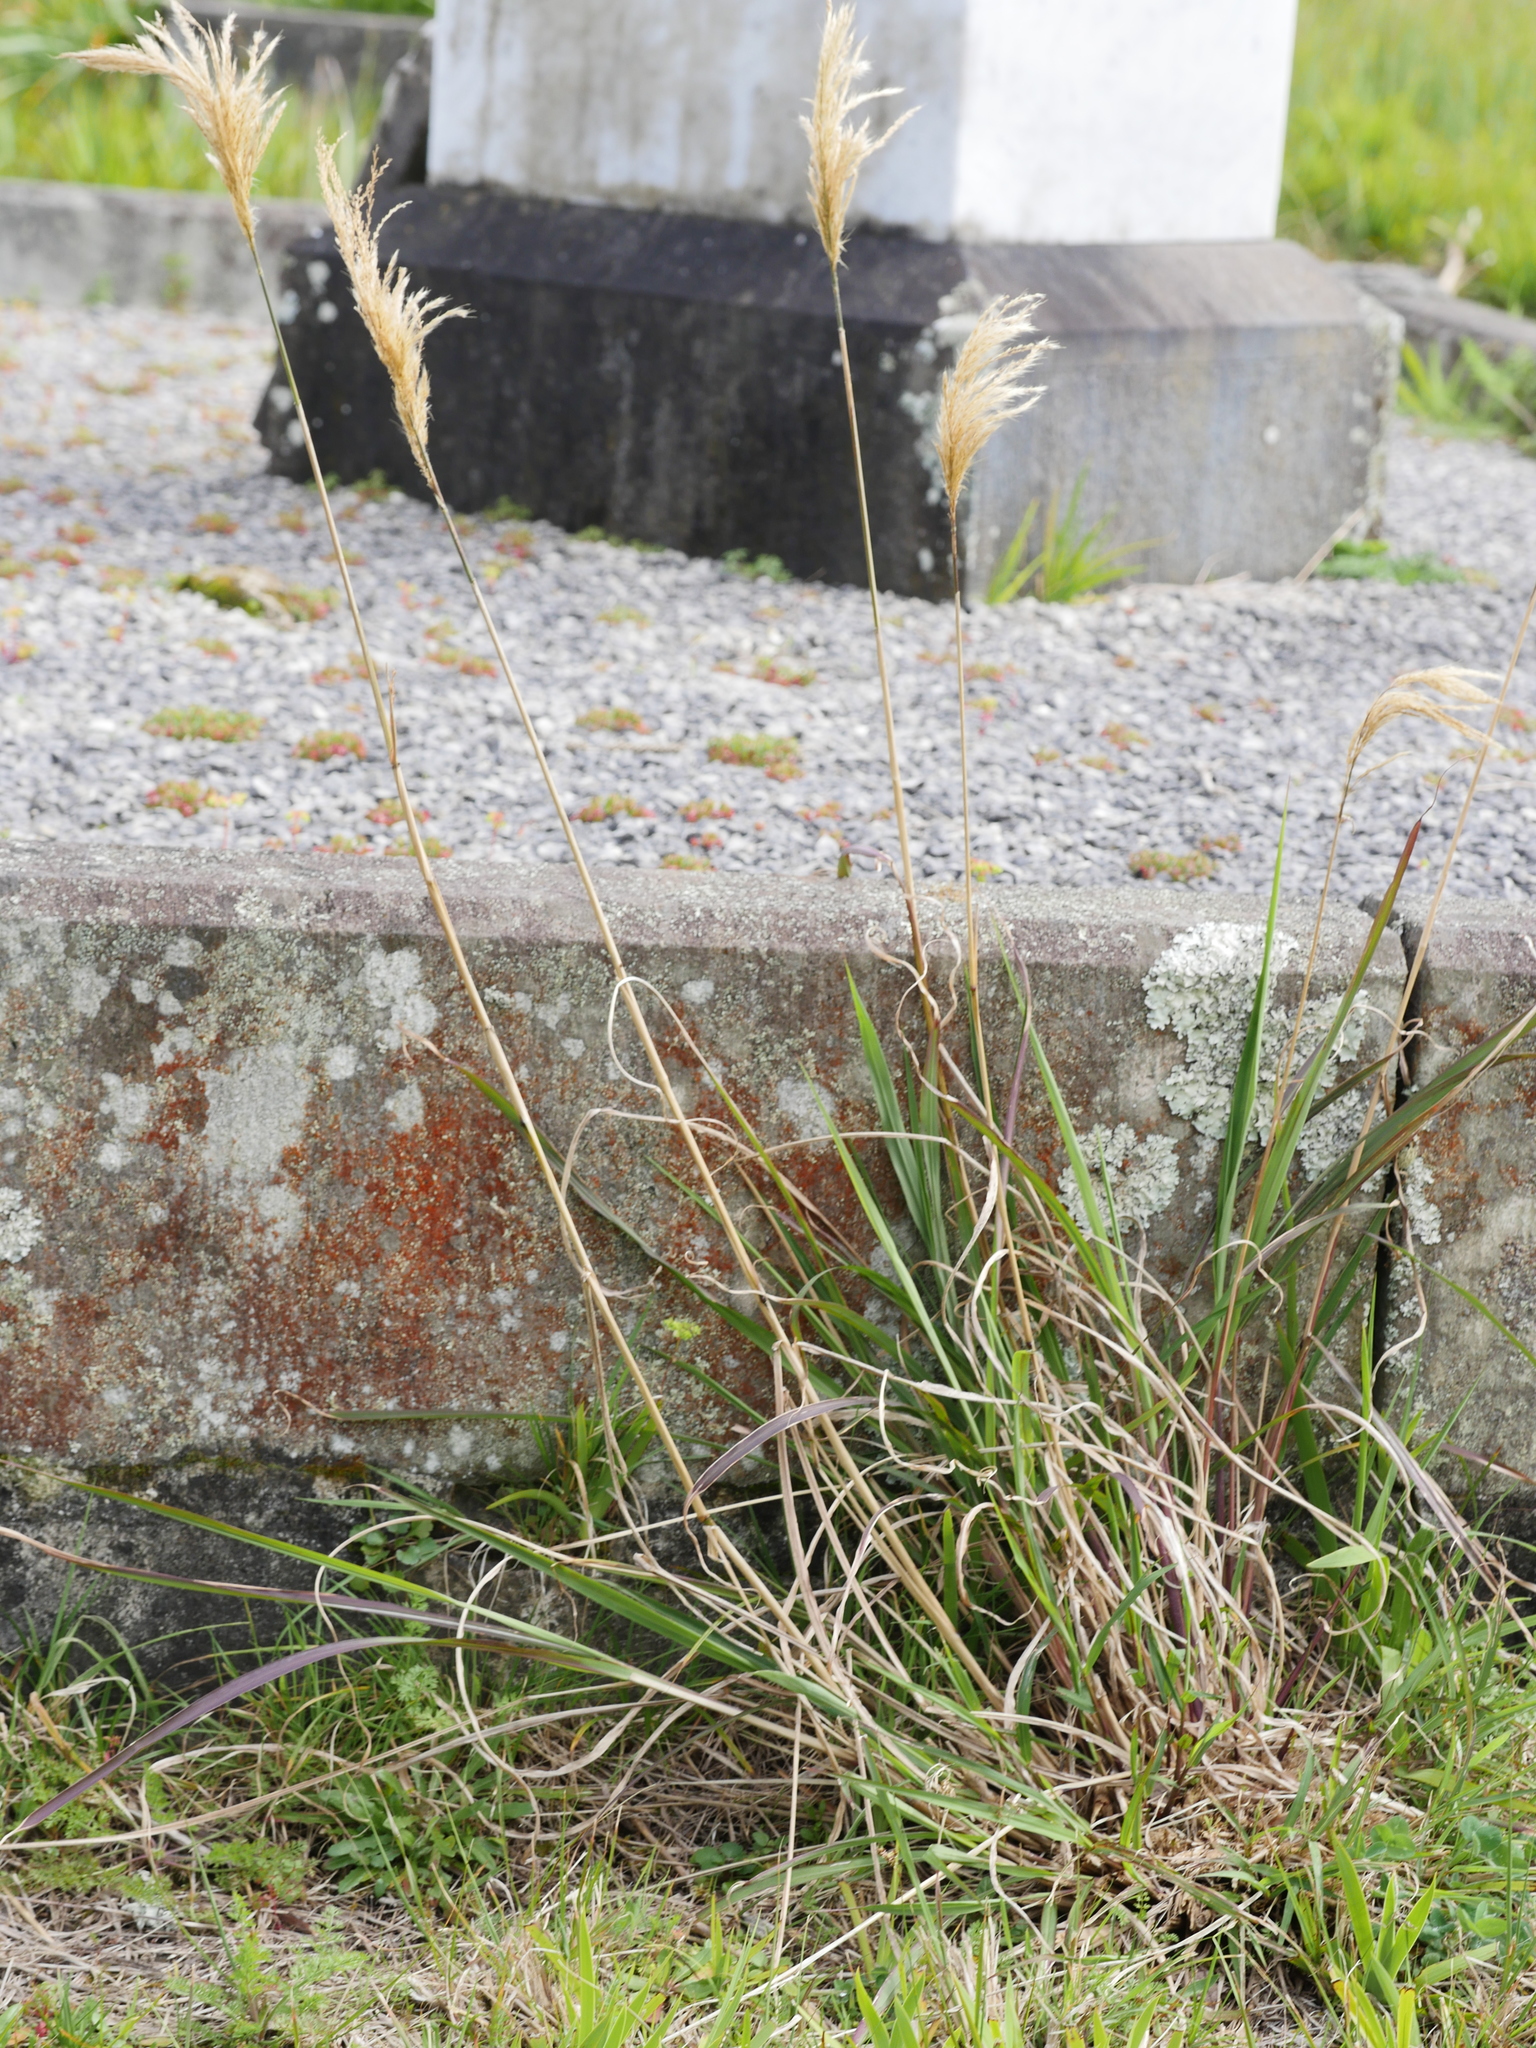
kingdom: Plantae
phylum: Tracheophyta
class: Liliopsida
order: Poales
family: Poaceae
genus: Miscanthus
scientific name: Miscanthus nepalensis
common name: Nepal silver grass
